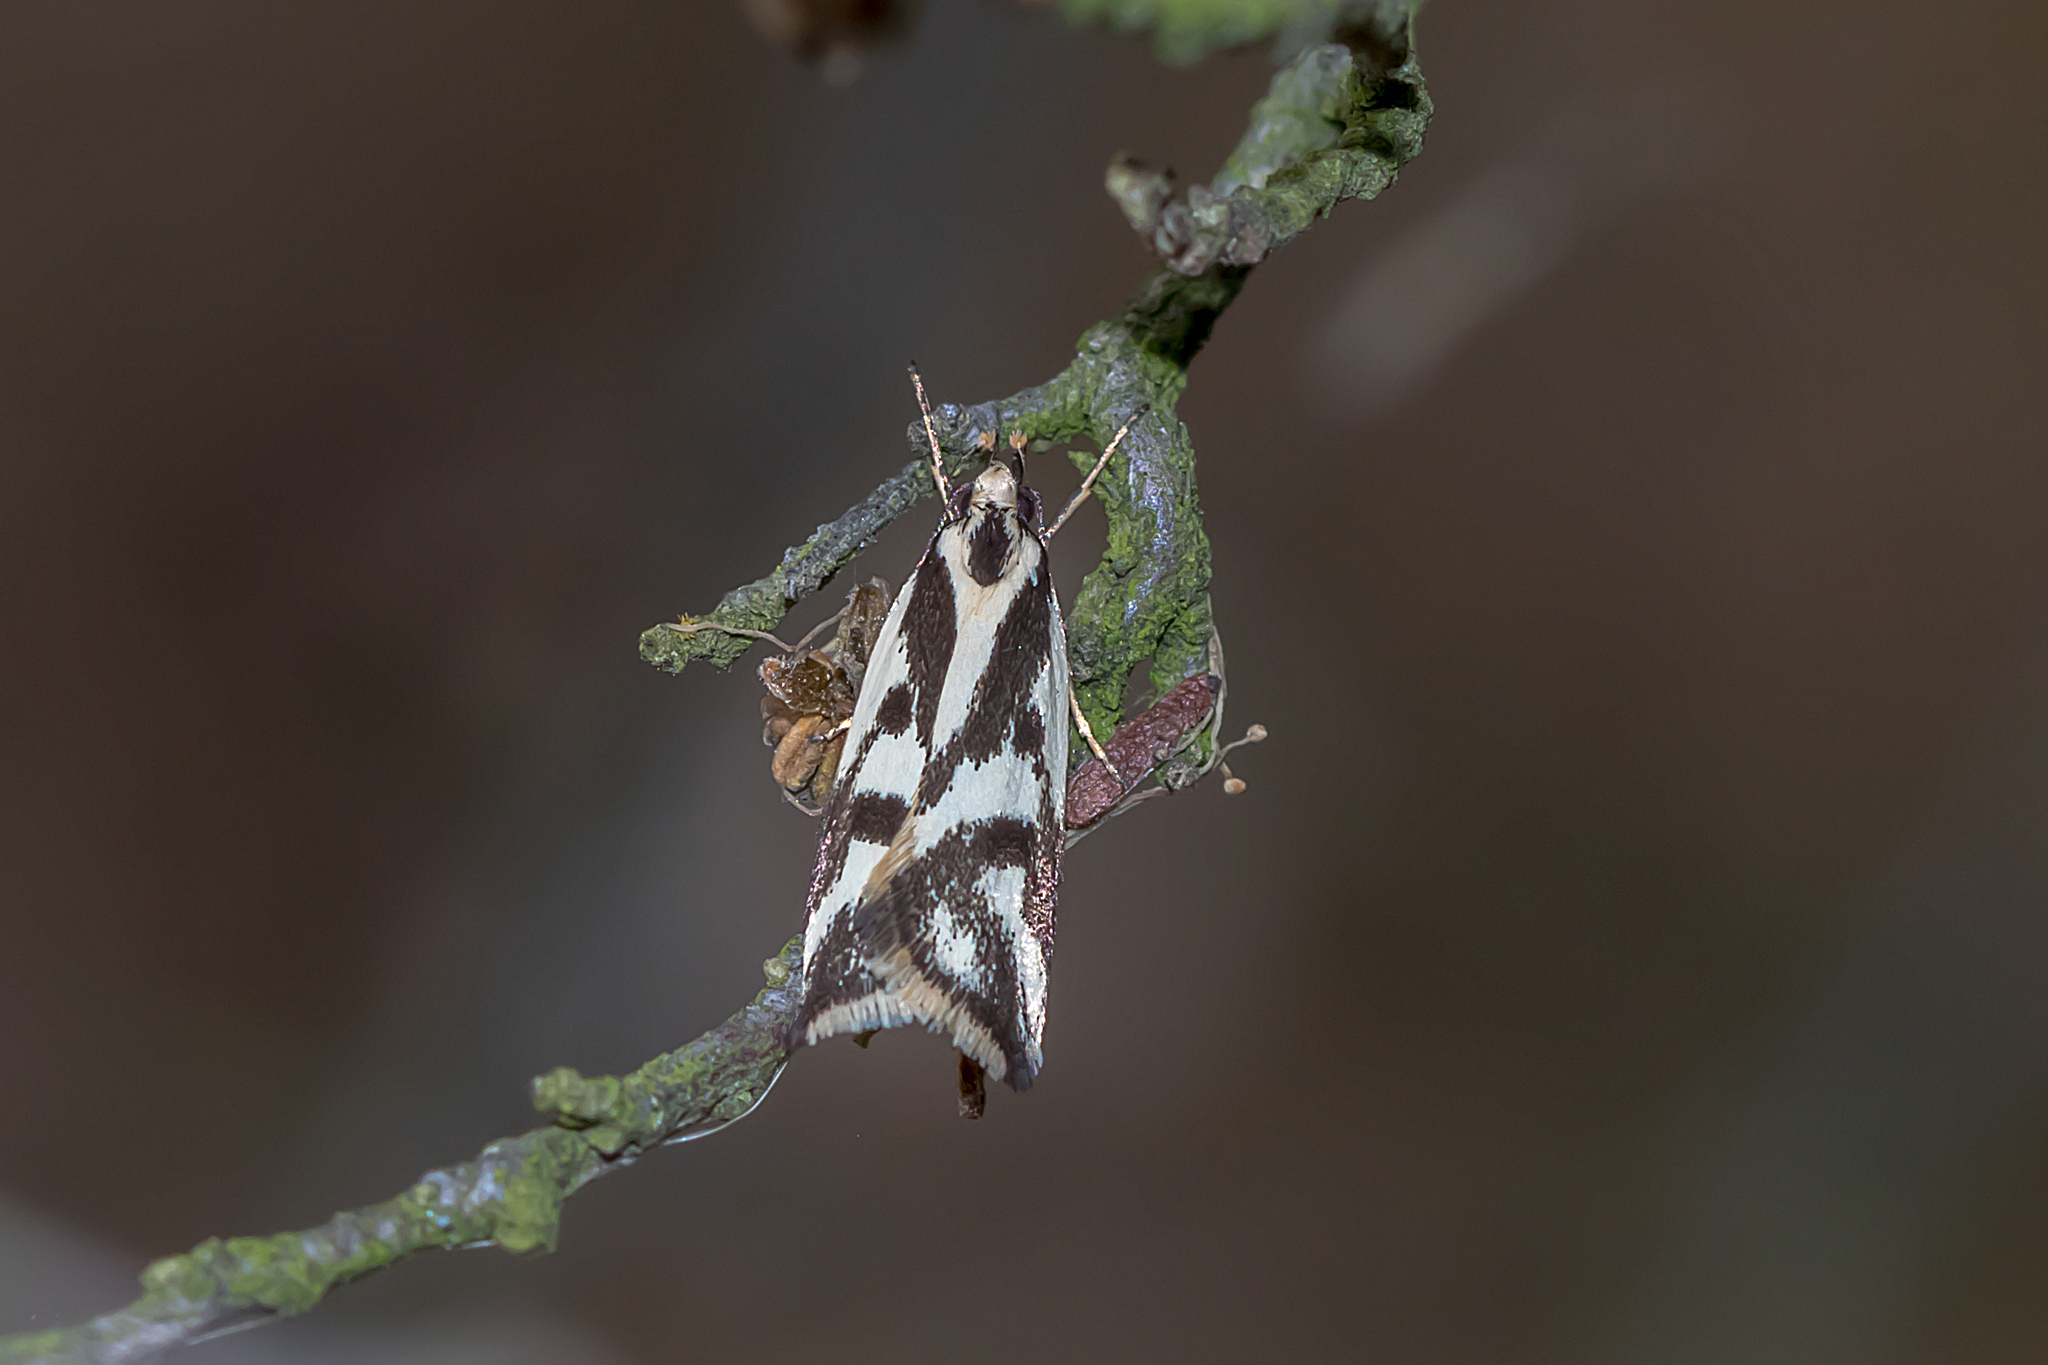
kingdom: Animalia
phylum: Arthropoda
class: Insecta
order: Lepidoptera
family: Oecophoridae
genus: Epithymema
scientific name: Epithymema incomposita
